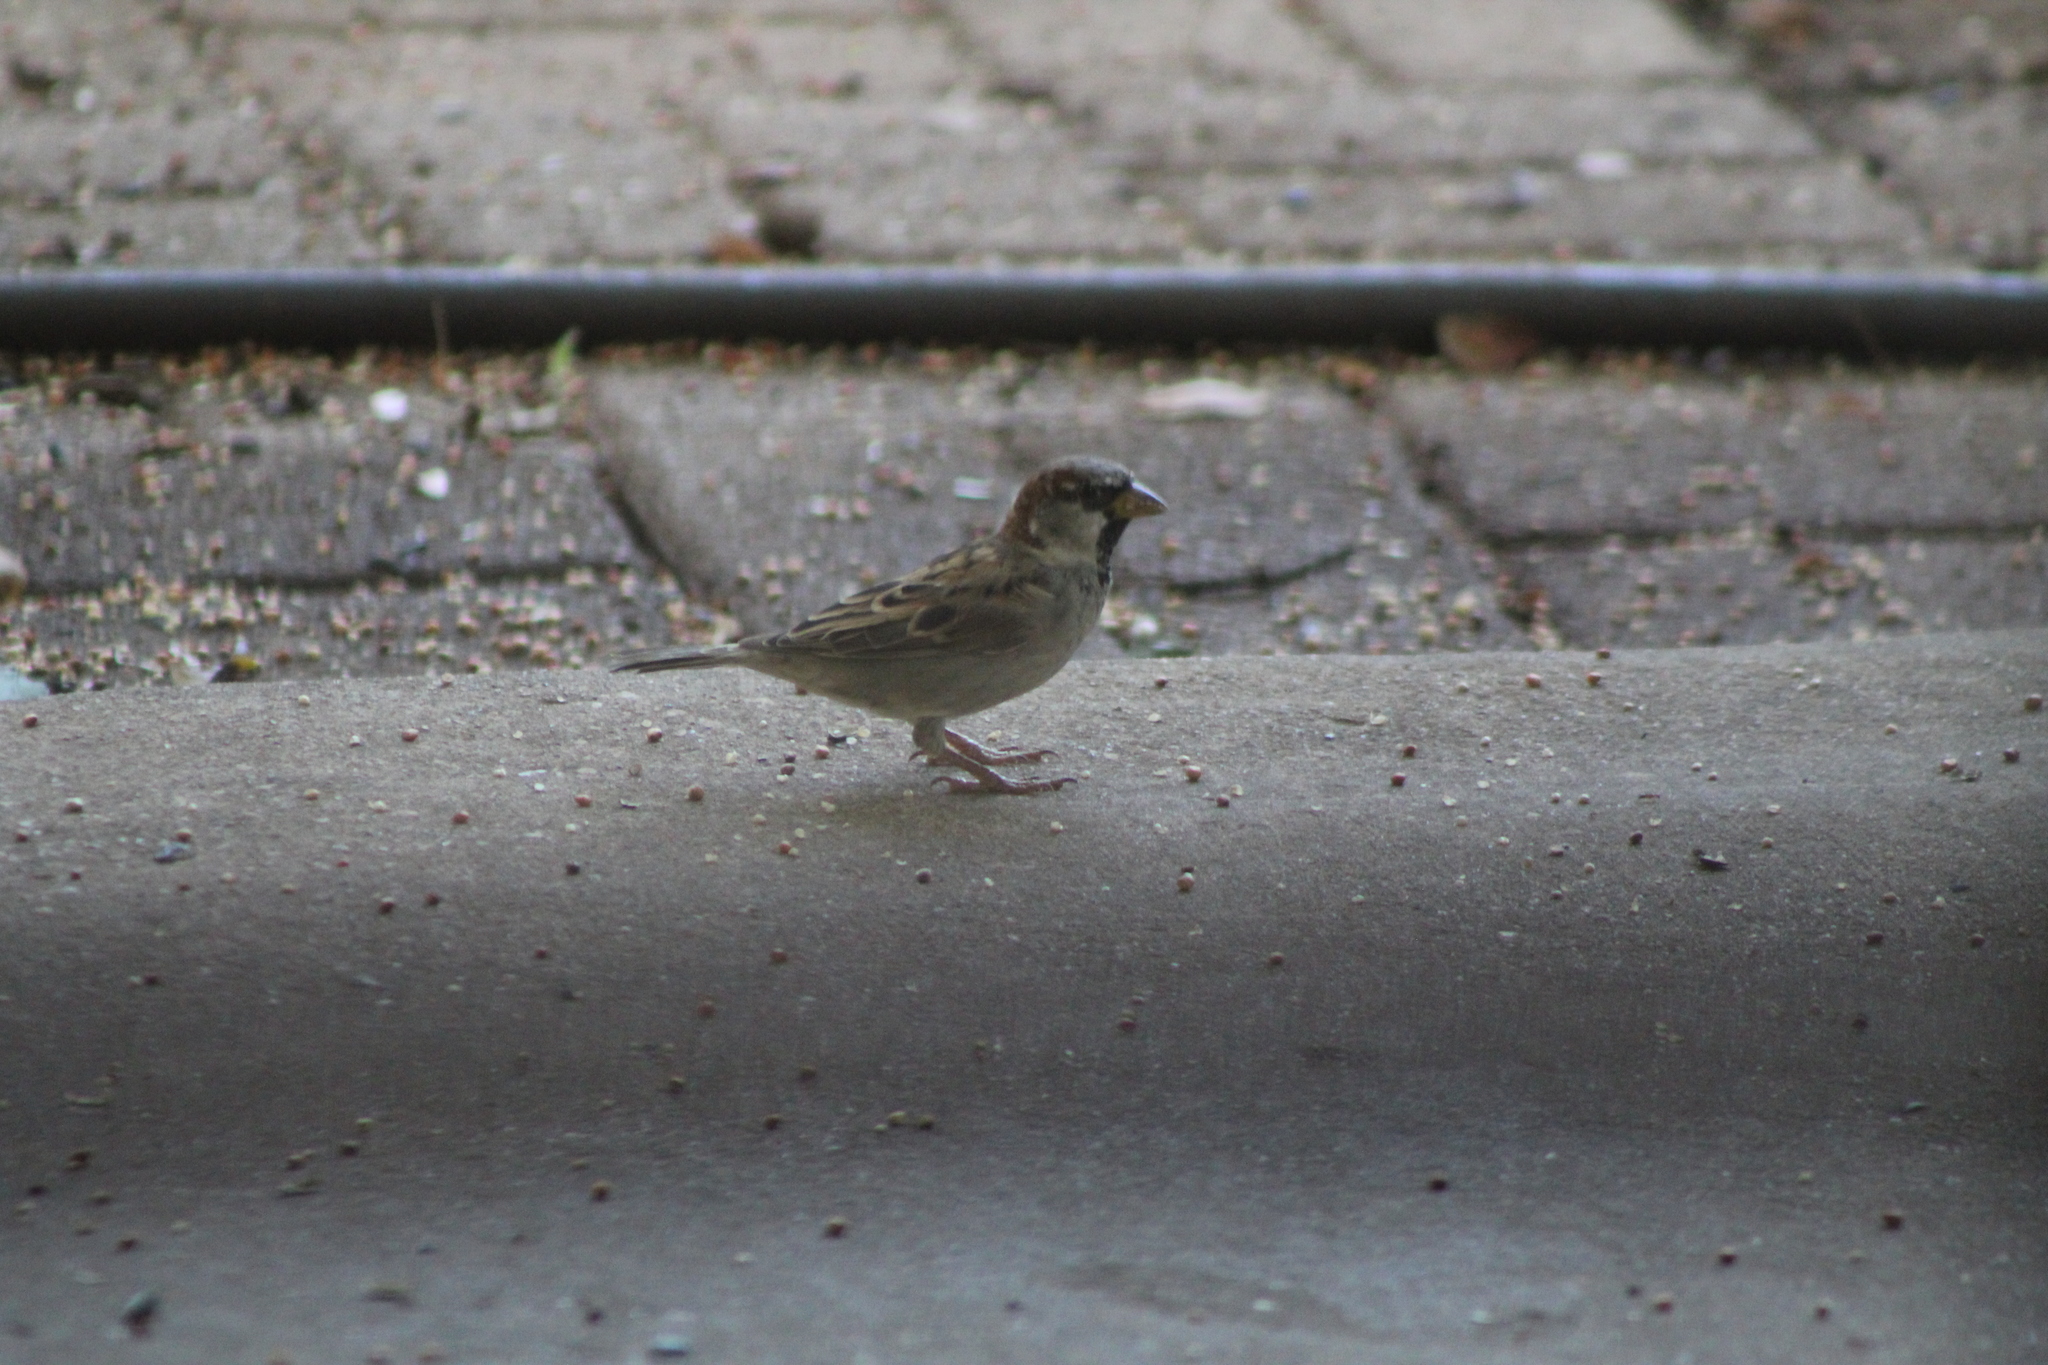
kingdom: Animalia
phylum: Chordata
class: Aves
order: Passeriformes
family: Passeridae
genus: Passer
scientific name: Passer domesticus
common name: House sparrow
